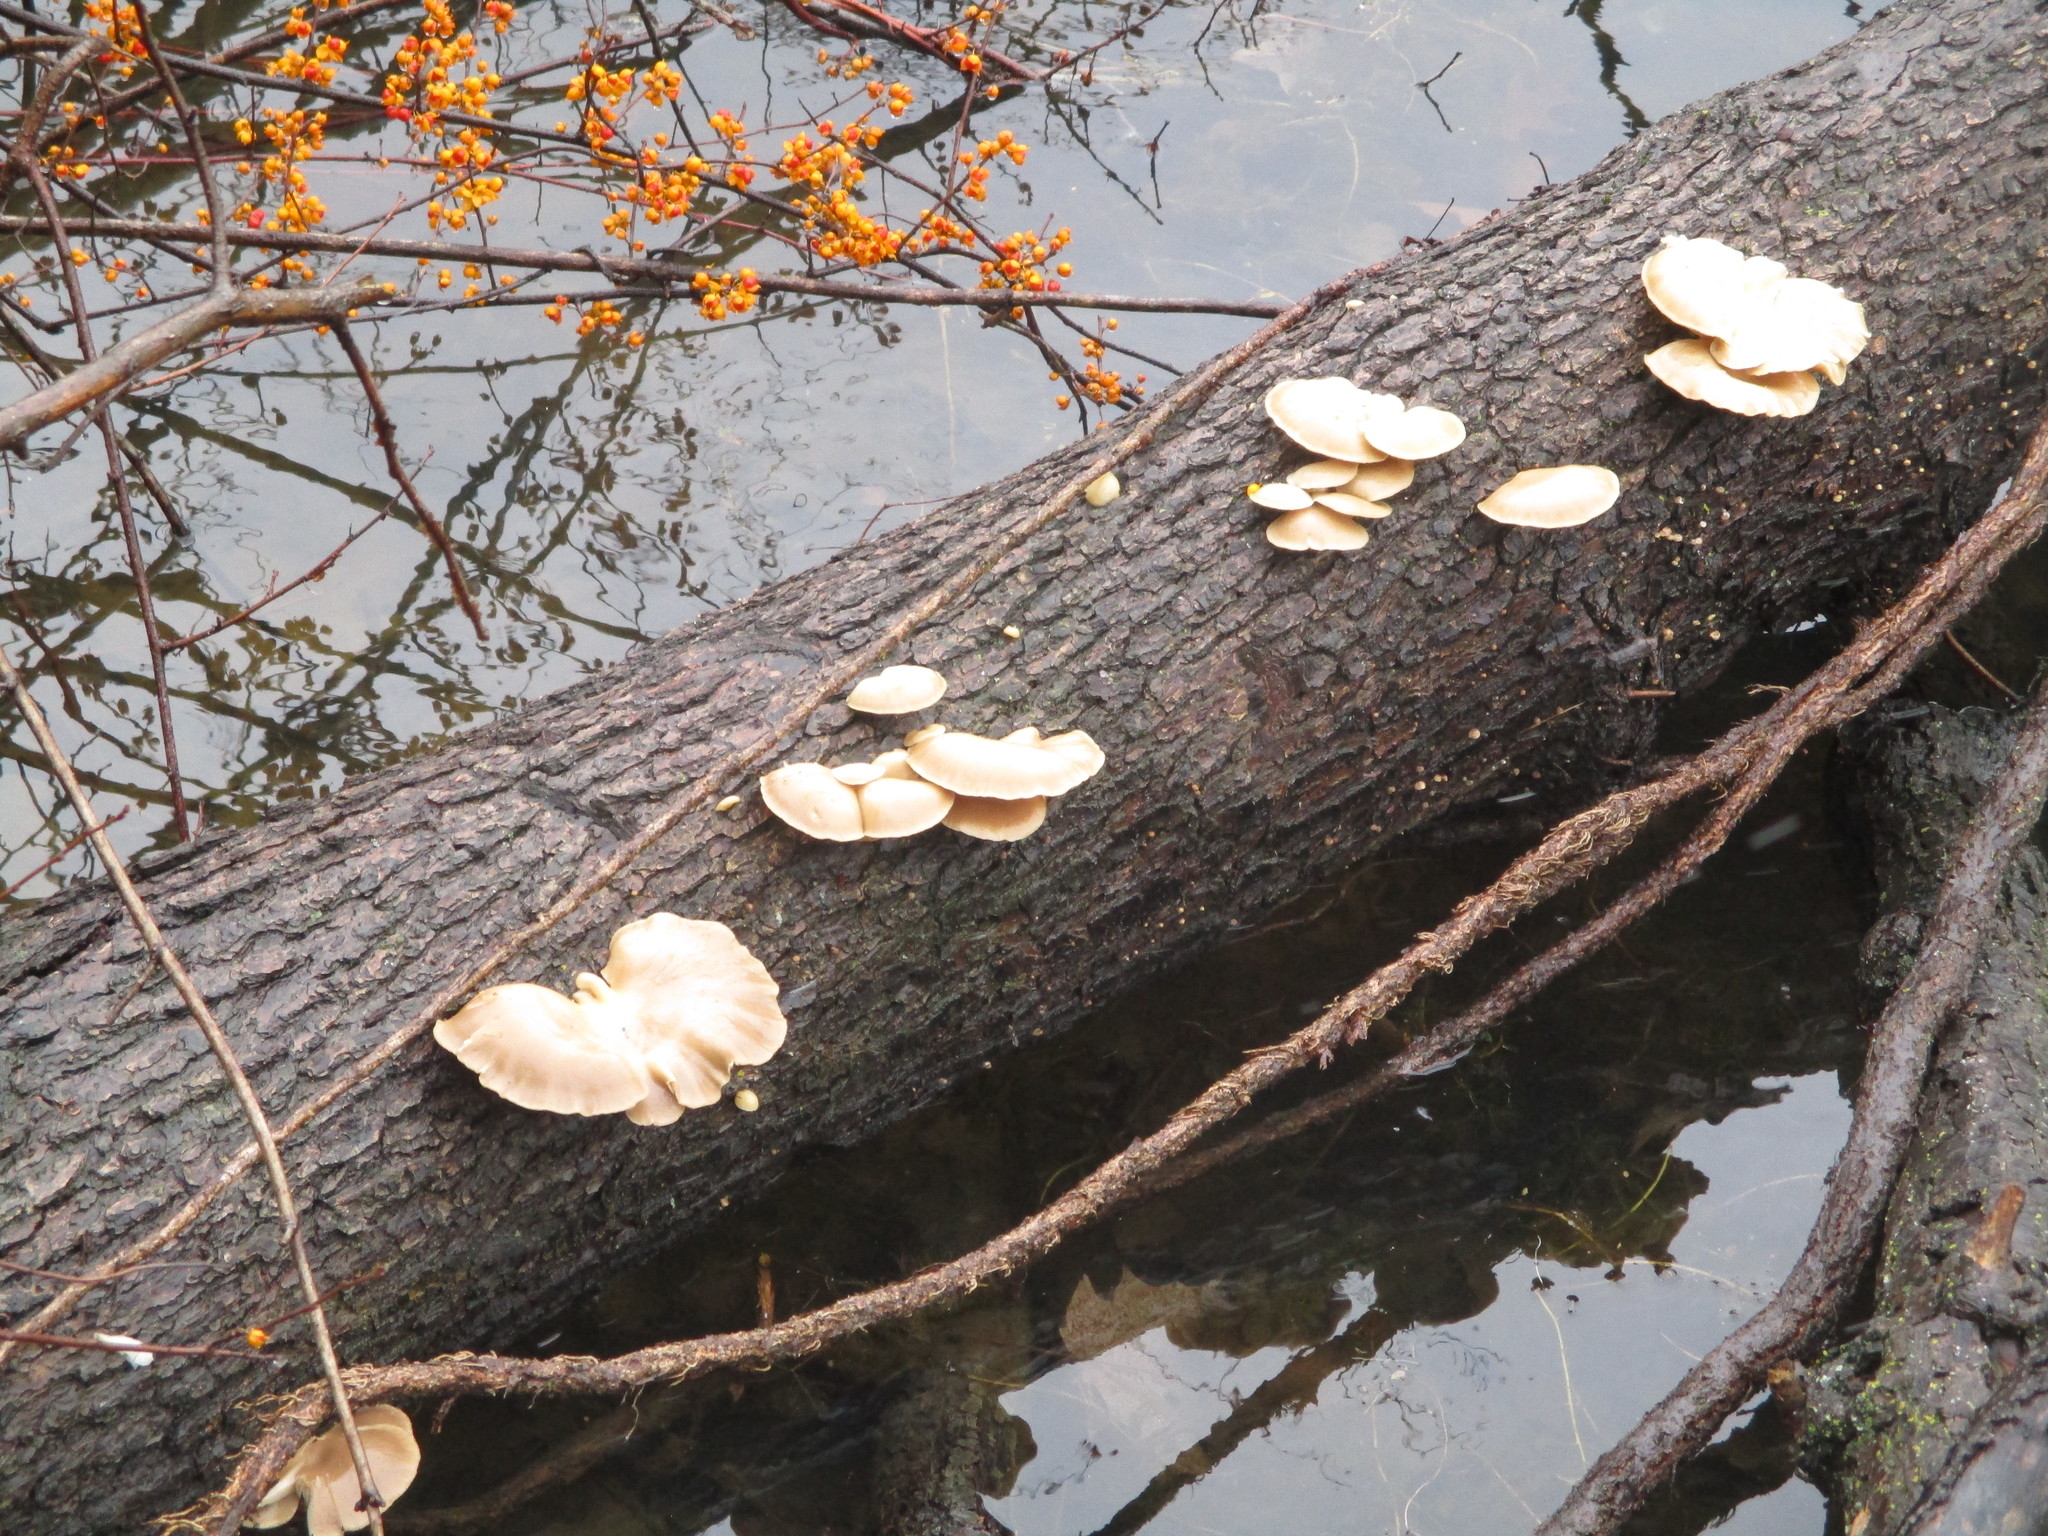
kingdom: Plantae
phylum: Tracheophyta
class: Magnoliopsida
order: Celastrales
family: Celastraceae
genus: Celastrus
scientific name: Celastrus orbiculatus
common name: Oriental bittersweet
